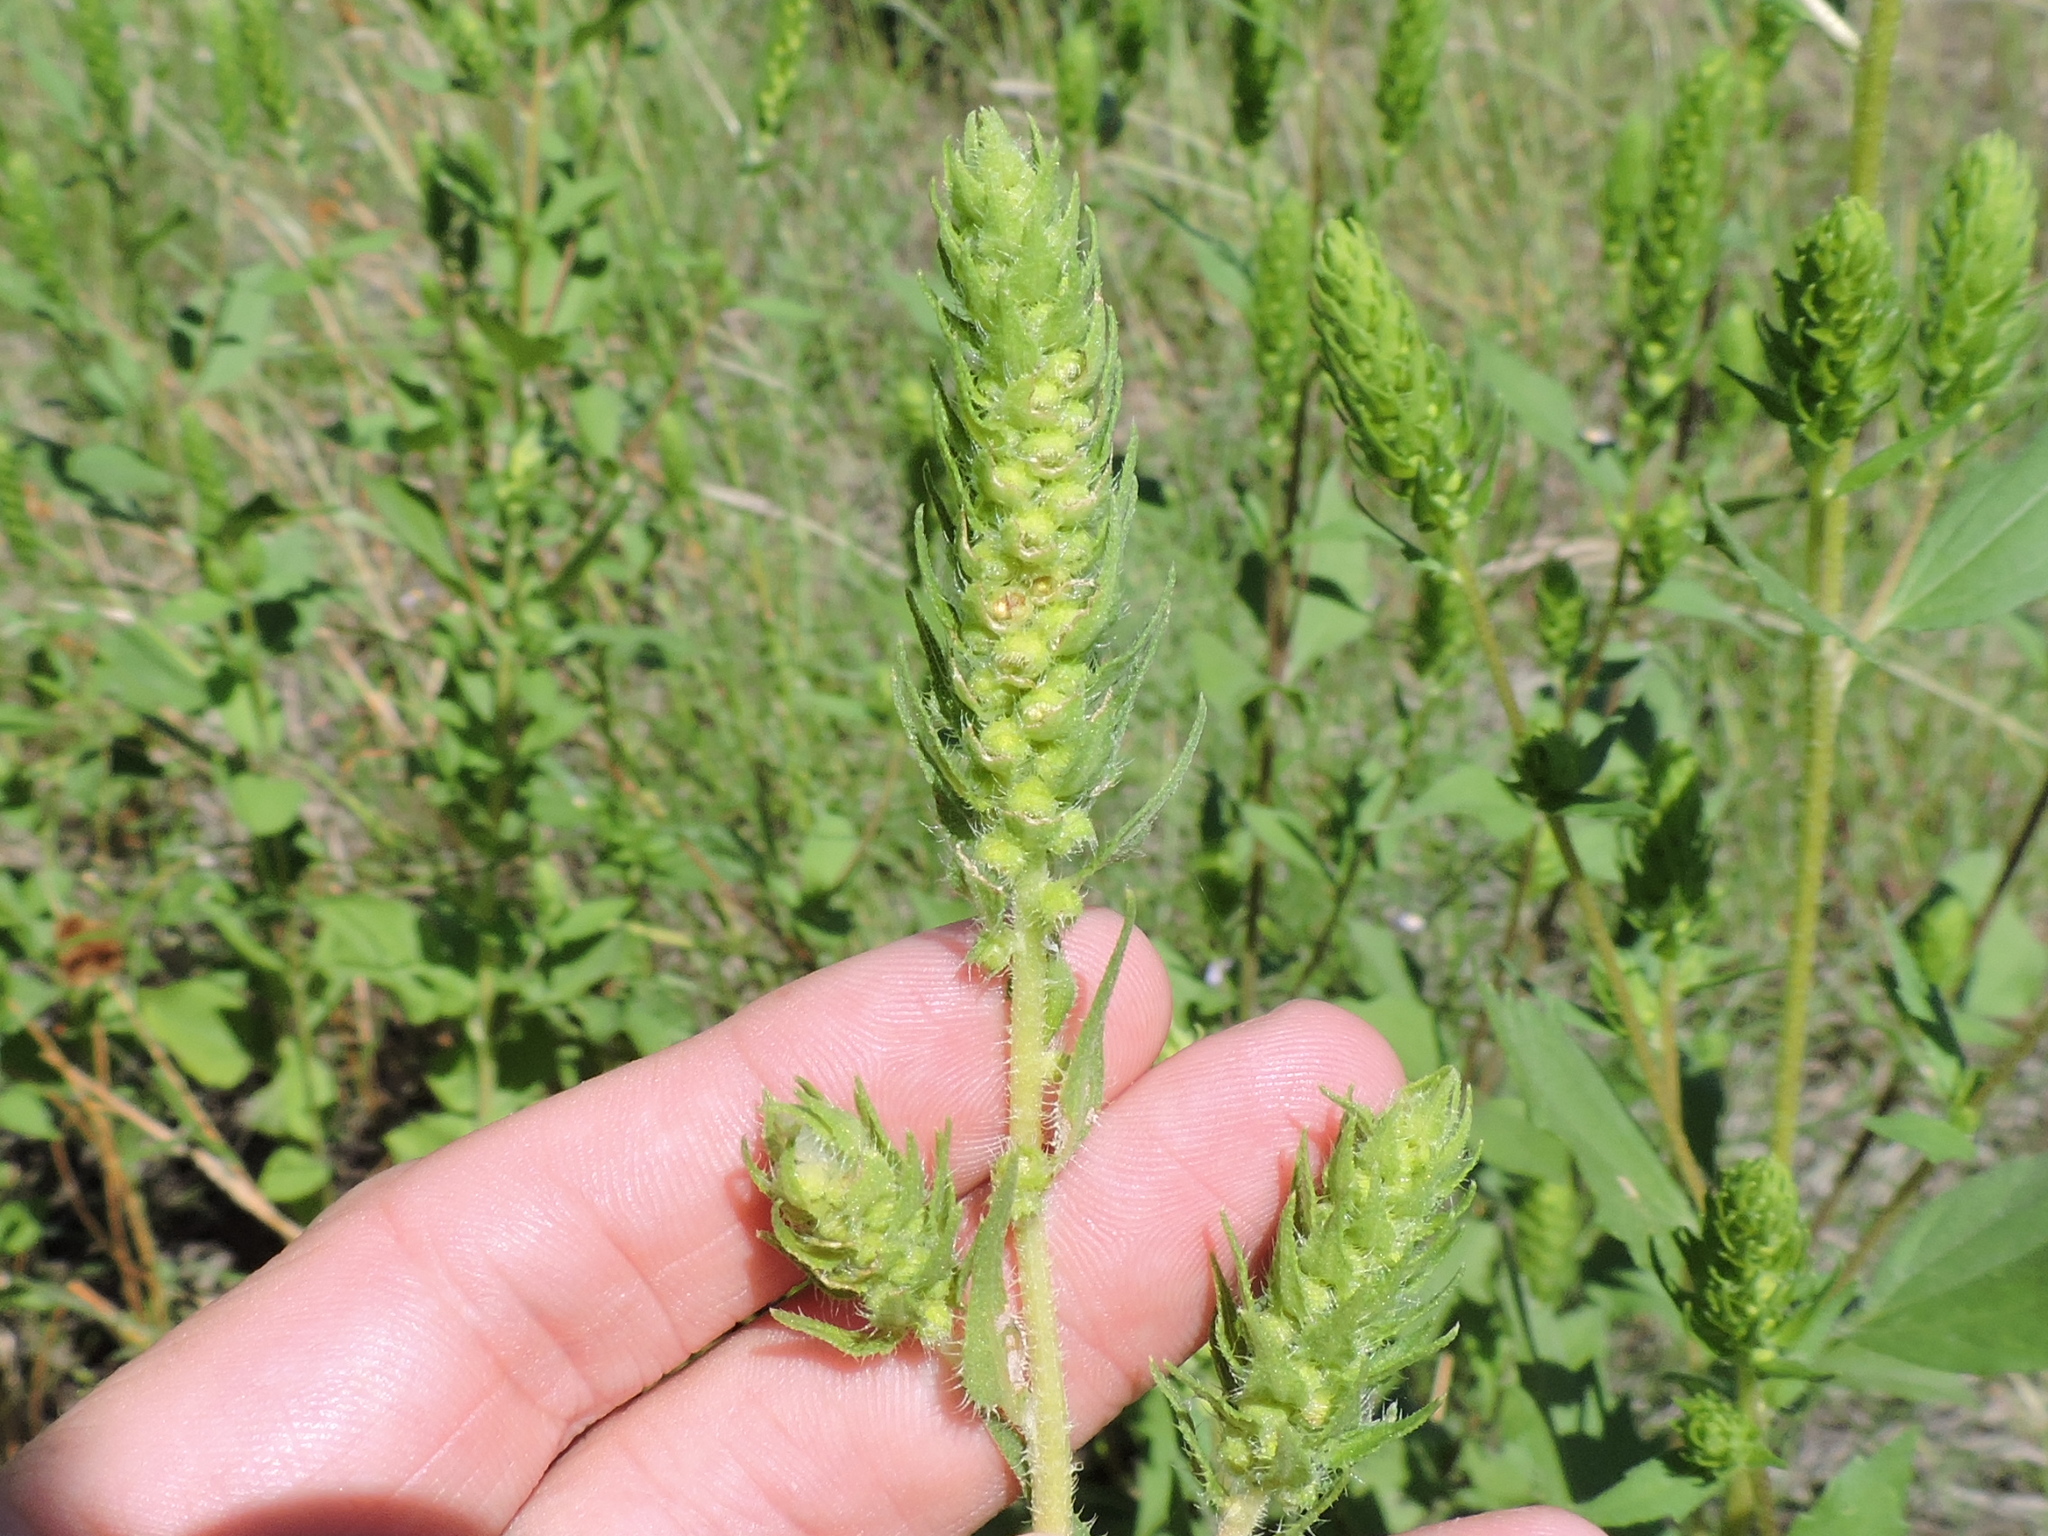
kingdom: Plantae
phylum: Tracheophyta
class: Magnoliopsida
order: Asterales
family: Asteraceae
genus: Iva
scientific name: Iva annua
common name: Marsh-elder
